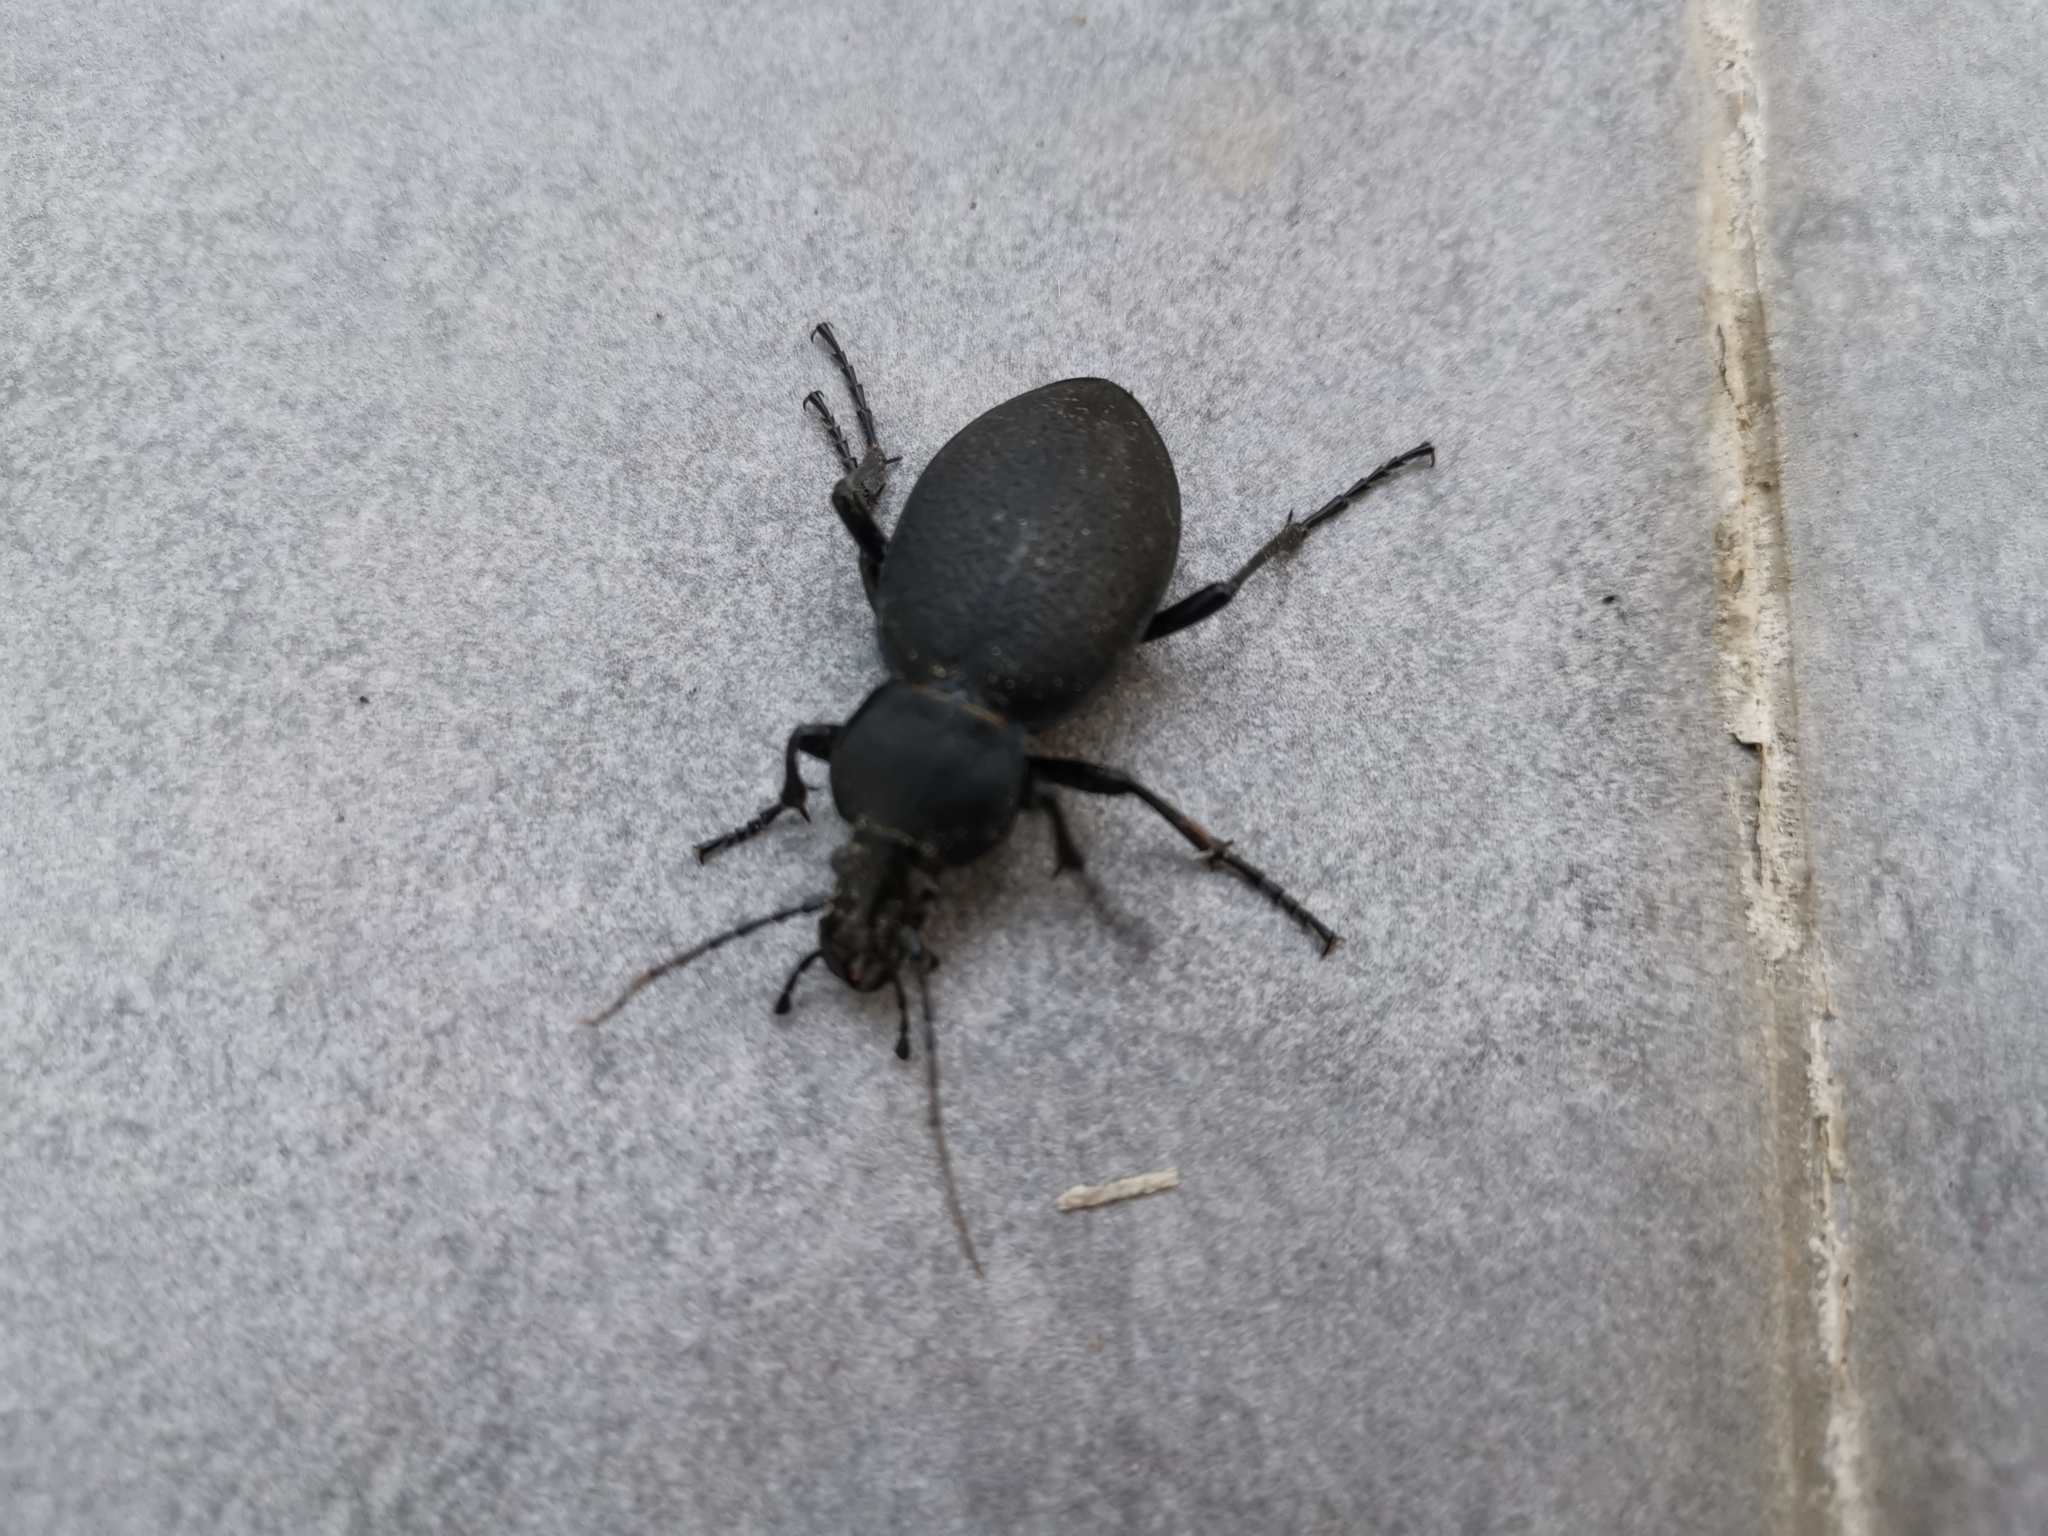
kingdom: Animalia
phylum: Arthropoda
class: Insecta
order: Coleoptera
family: Carabidae
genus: Carabus
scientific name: Carabus coriaceus
